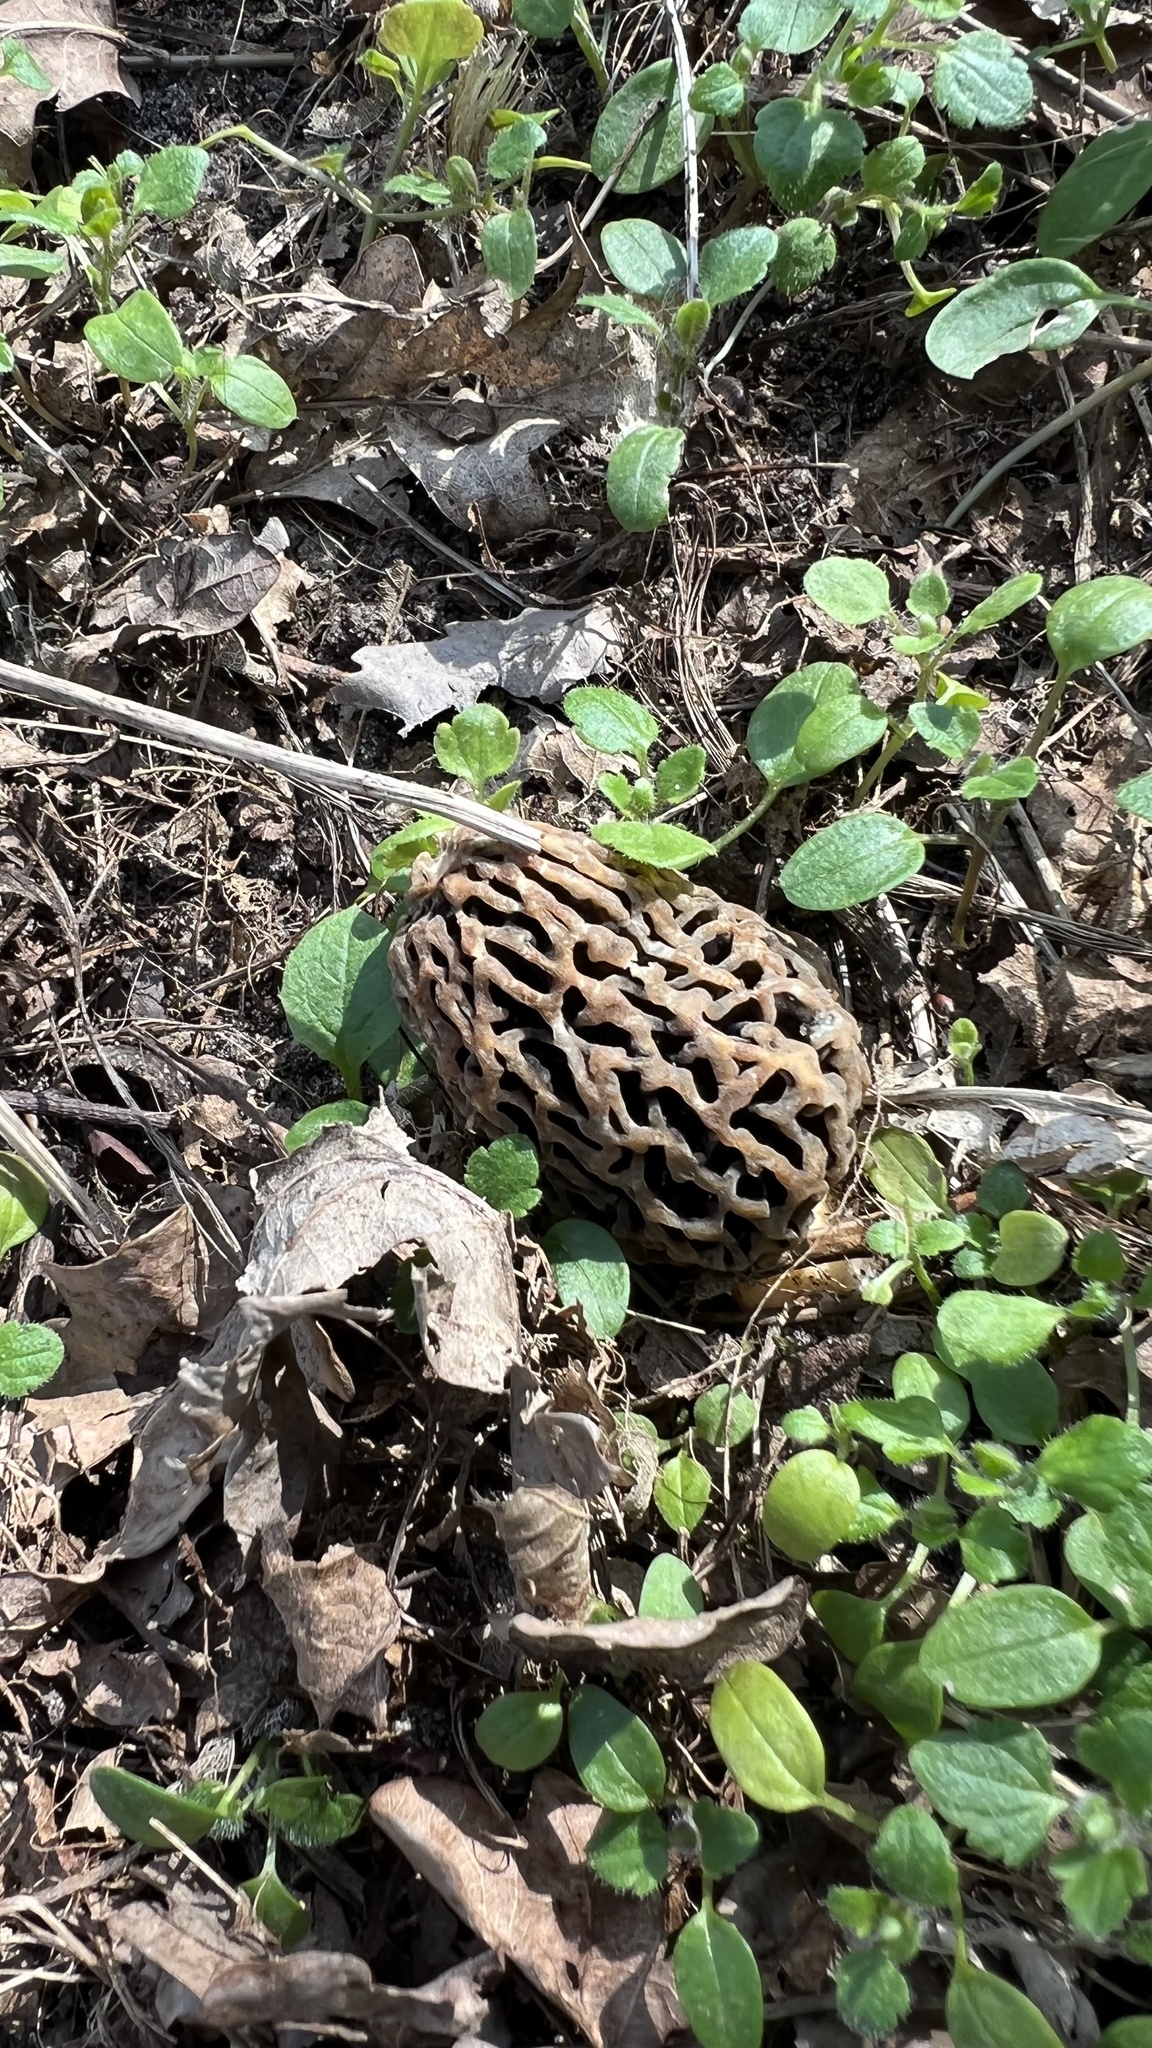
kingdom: Fungi
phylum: Ascomycota
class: Pezizomycetes
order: Pezizales
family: Morchellaceae
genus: Morchella
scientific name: Morchella
